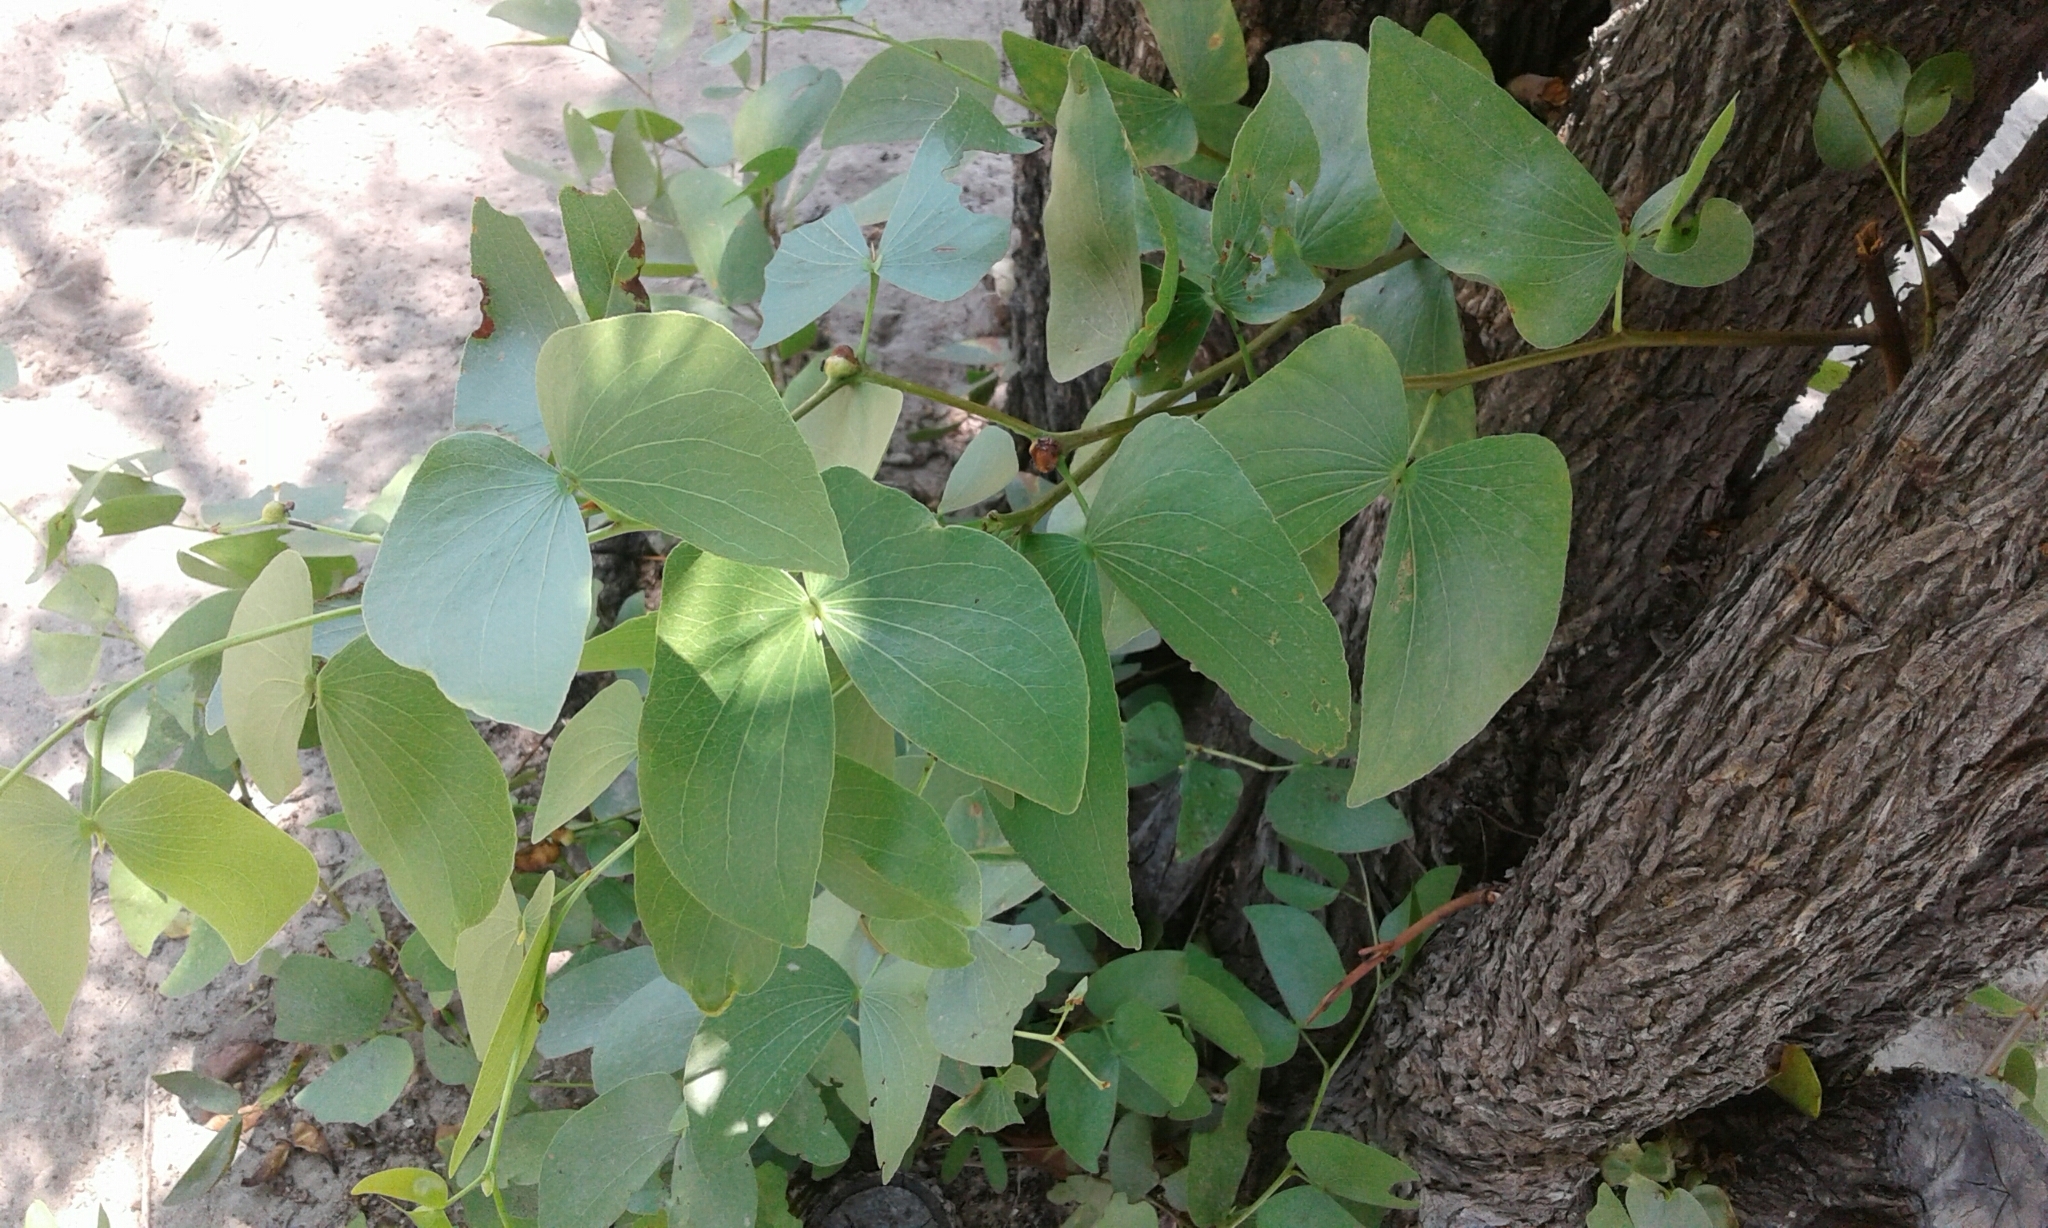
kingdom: Plantae
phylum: Tracheophyta
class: Magnoliopsida
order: Fabales
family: Fabaceae
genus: Colophospermum
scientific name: Colophospermum mopane
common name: Mopane
